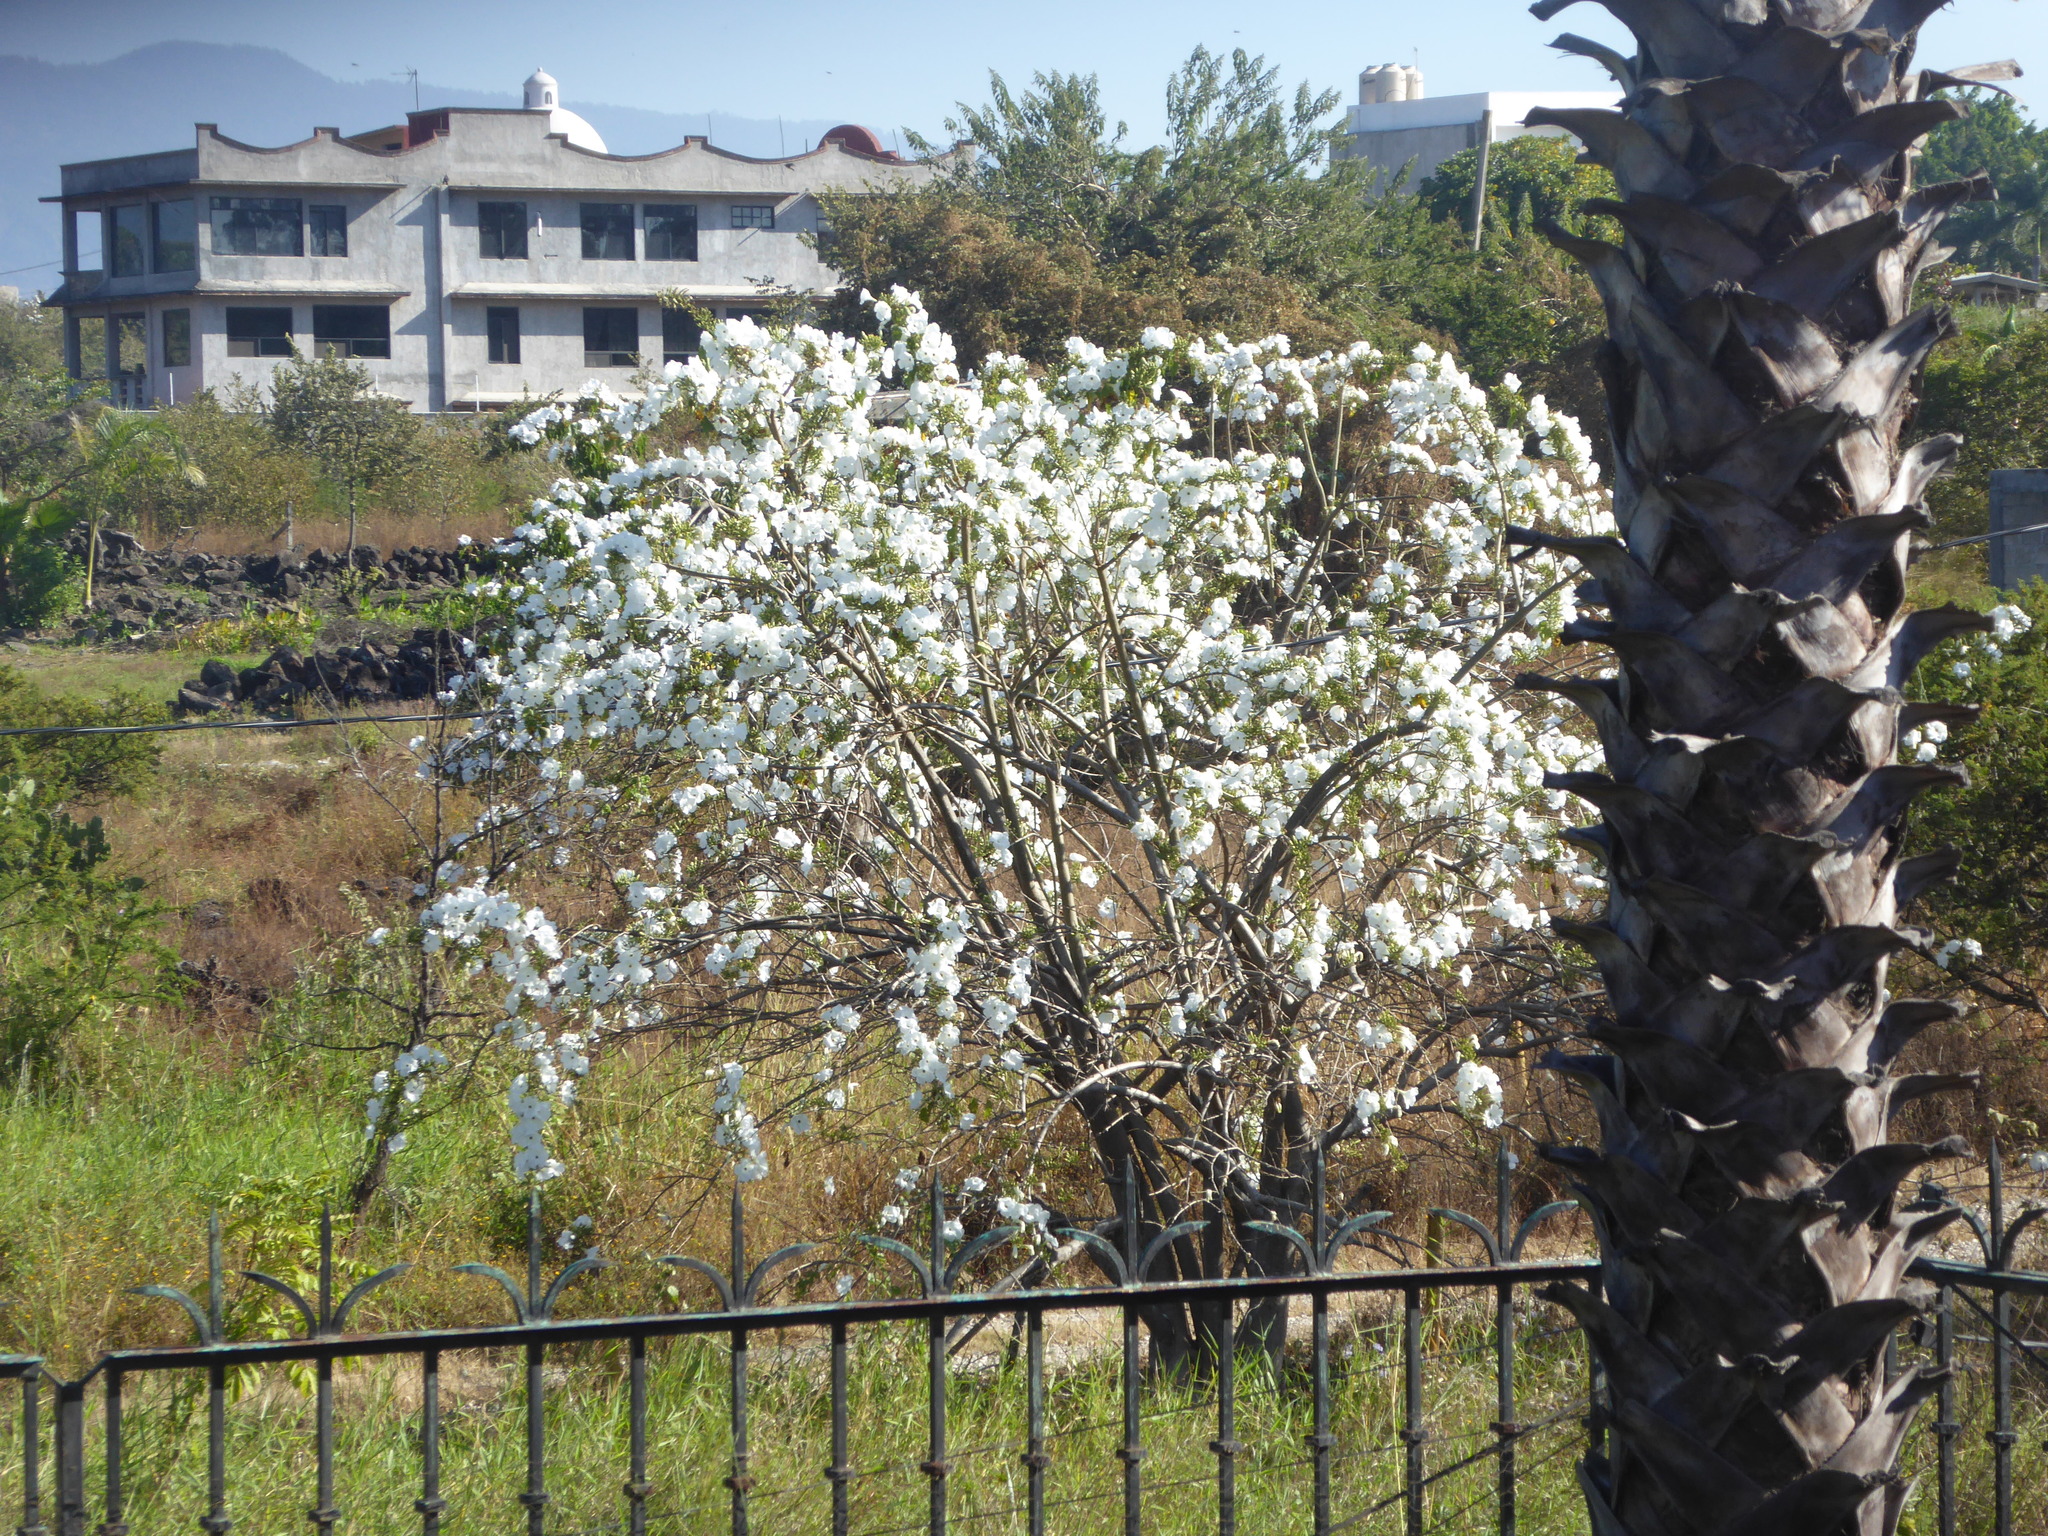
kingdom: Plantae
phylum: Tracheophyta
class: Magnoliopsida
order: Solanales
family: Convolvulaceae
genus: Ipomoea
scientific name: Ipomoea pauciflora
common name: Tree morningglory
